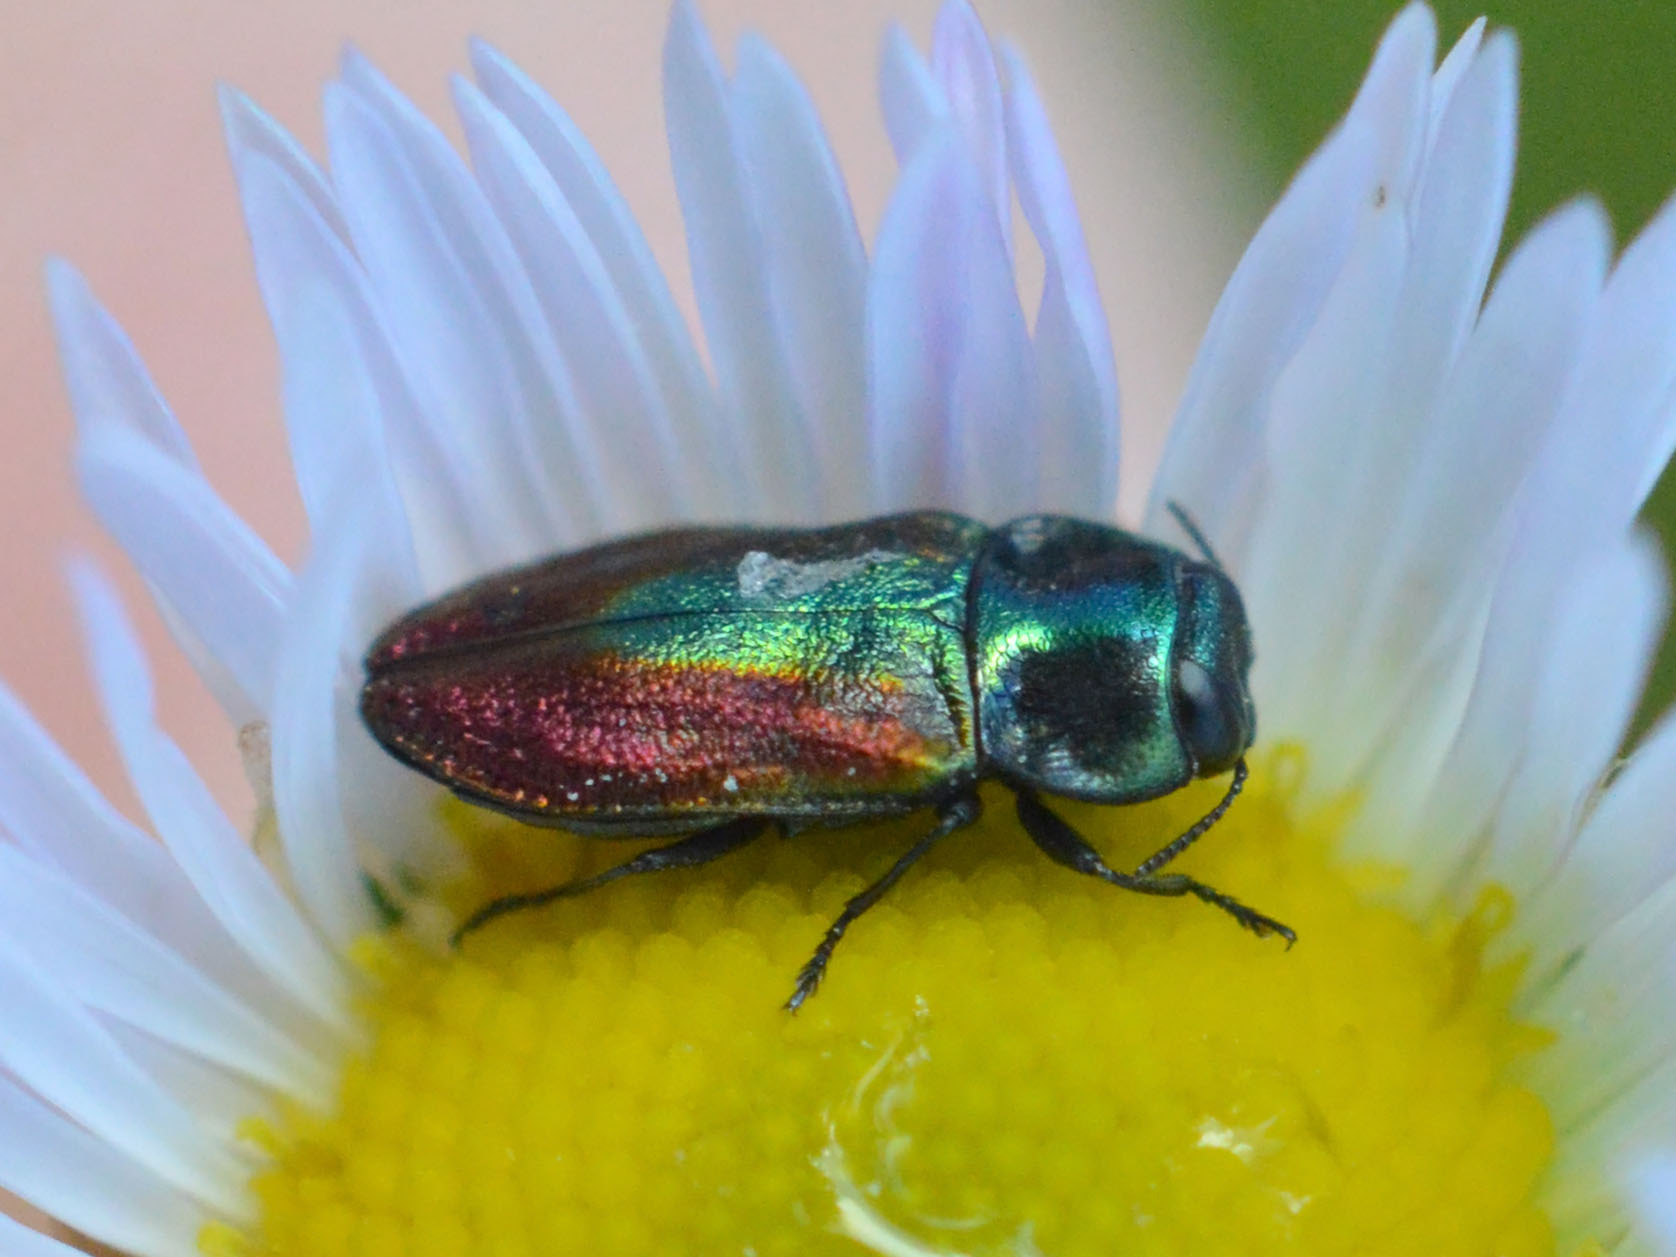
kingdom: Animalia
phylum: Arthropoda
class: Insecta
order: Coleoptera
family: Buprestidae
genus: Anthaxia
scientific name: Anthaxia fulgurans
